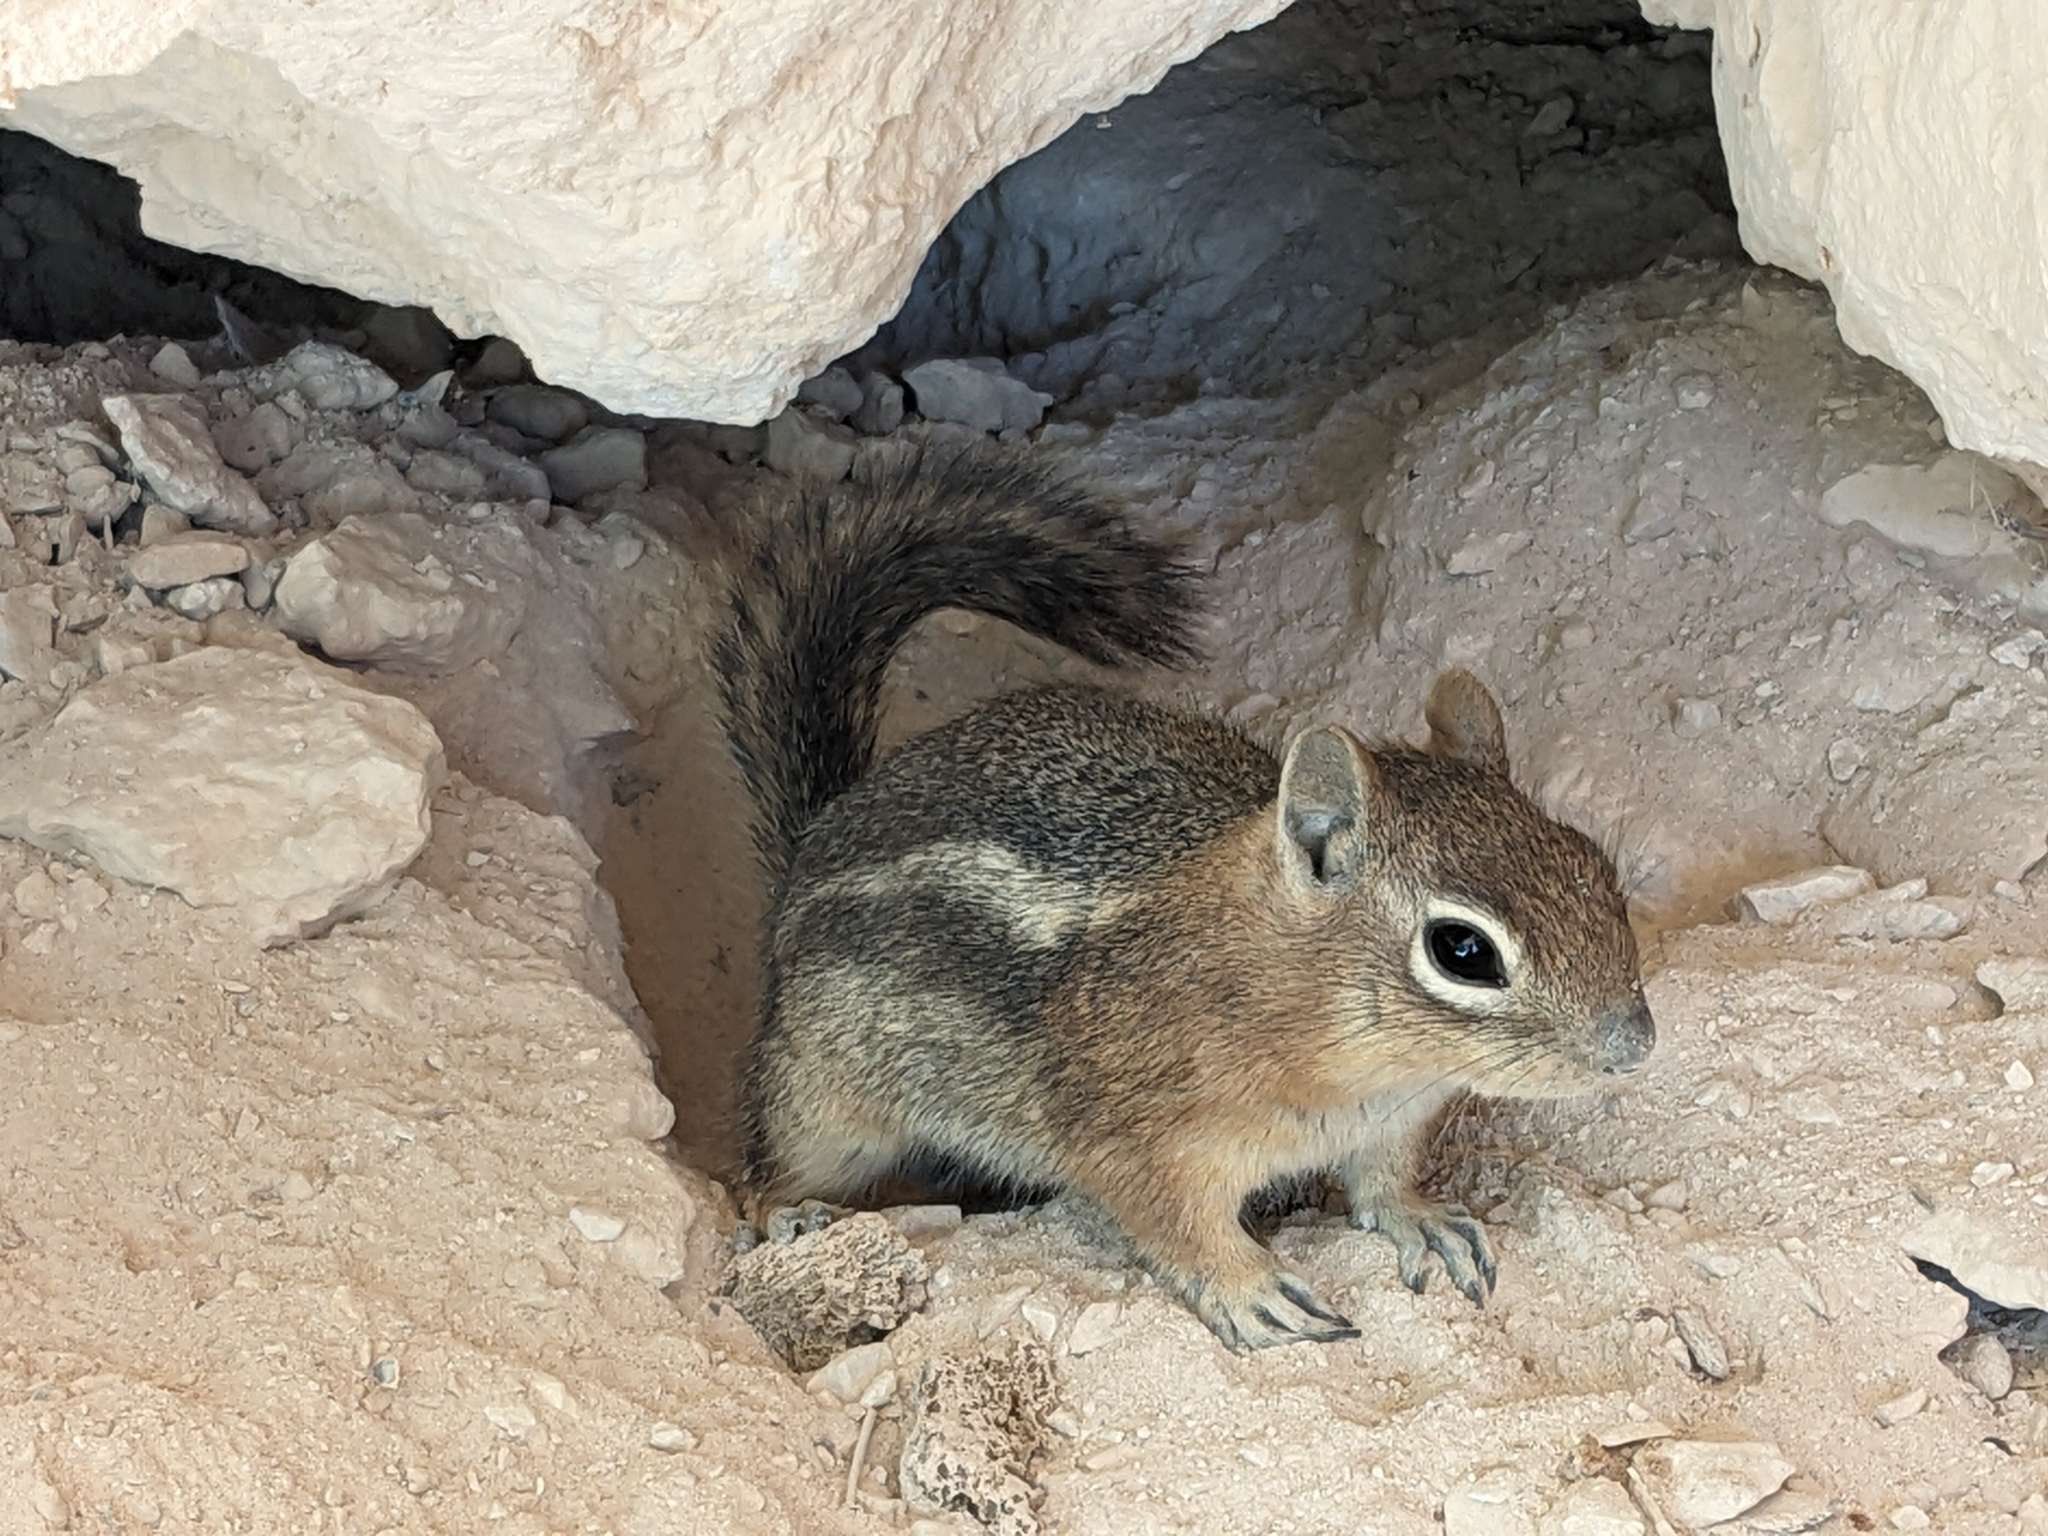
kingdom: Animalia
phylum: Chordata
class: Mammalia
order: Rodentia
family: Sciuridae
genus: Callospermophilus
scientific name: Callospermophilus lateralis
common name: Golden-mantled ground squirrel
